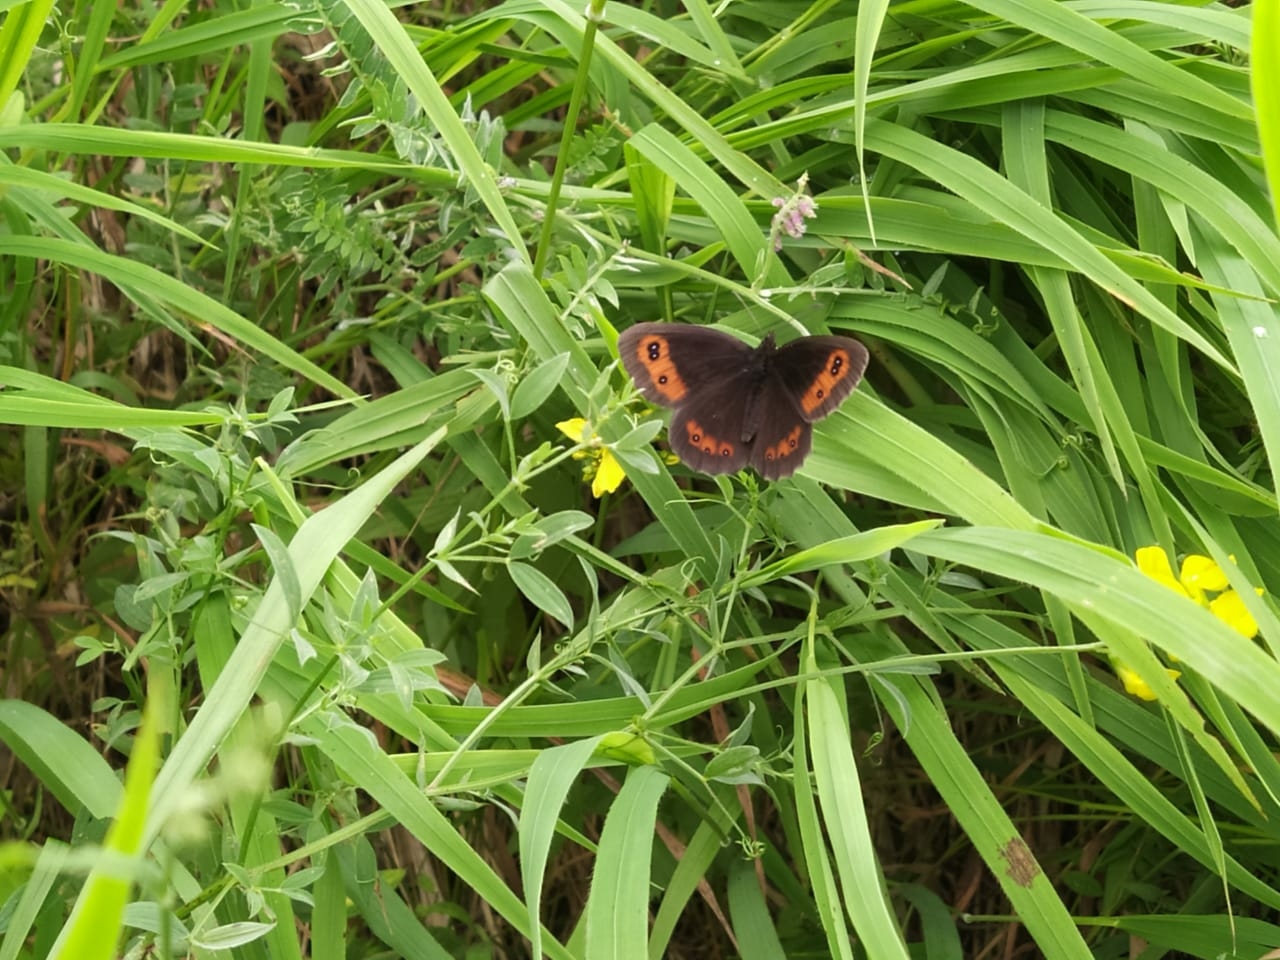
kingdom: Animalia
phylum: Arthropoda
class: Insecta
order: Lepidoptera
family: Nymphalidae
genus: Erebia
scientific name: Erebia aethiops
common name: Scotch argus
